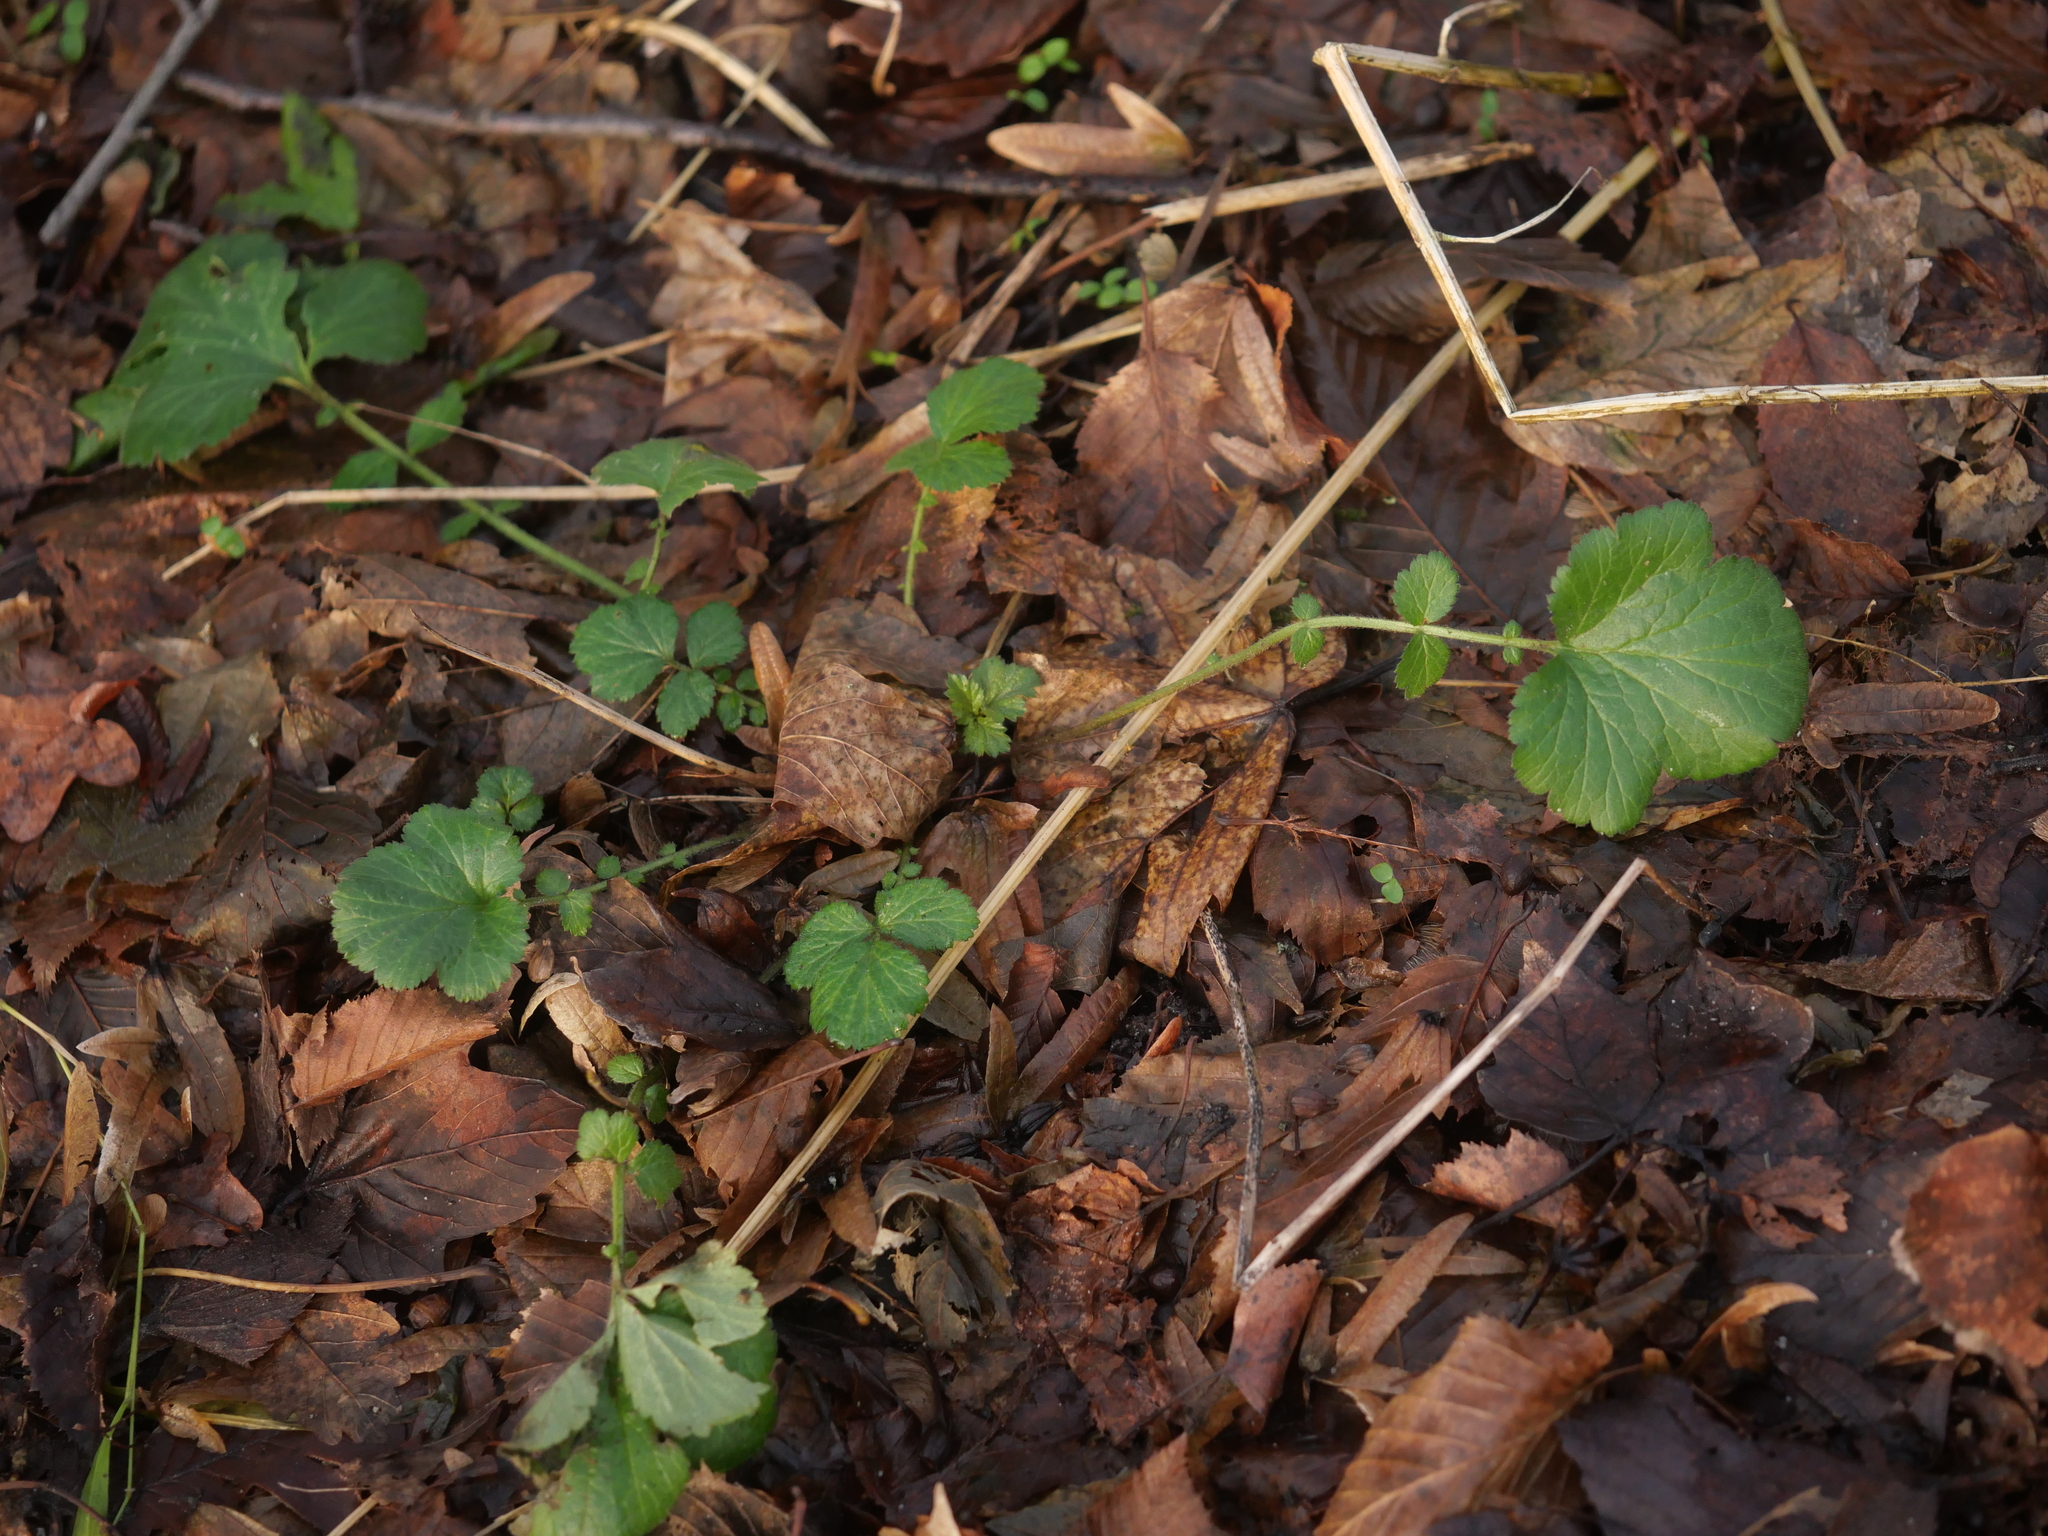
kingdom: Plantae
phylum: Tracheophyta
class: Magnoliopsida
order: Rosales
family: Rosaceae
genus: Geum
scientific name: Geum urbanum
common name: Wood avens
